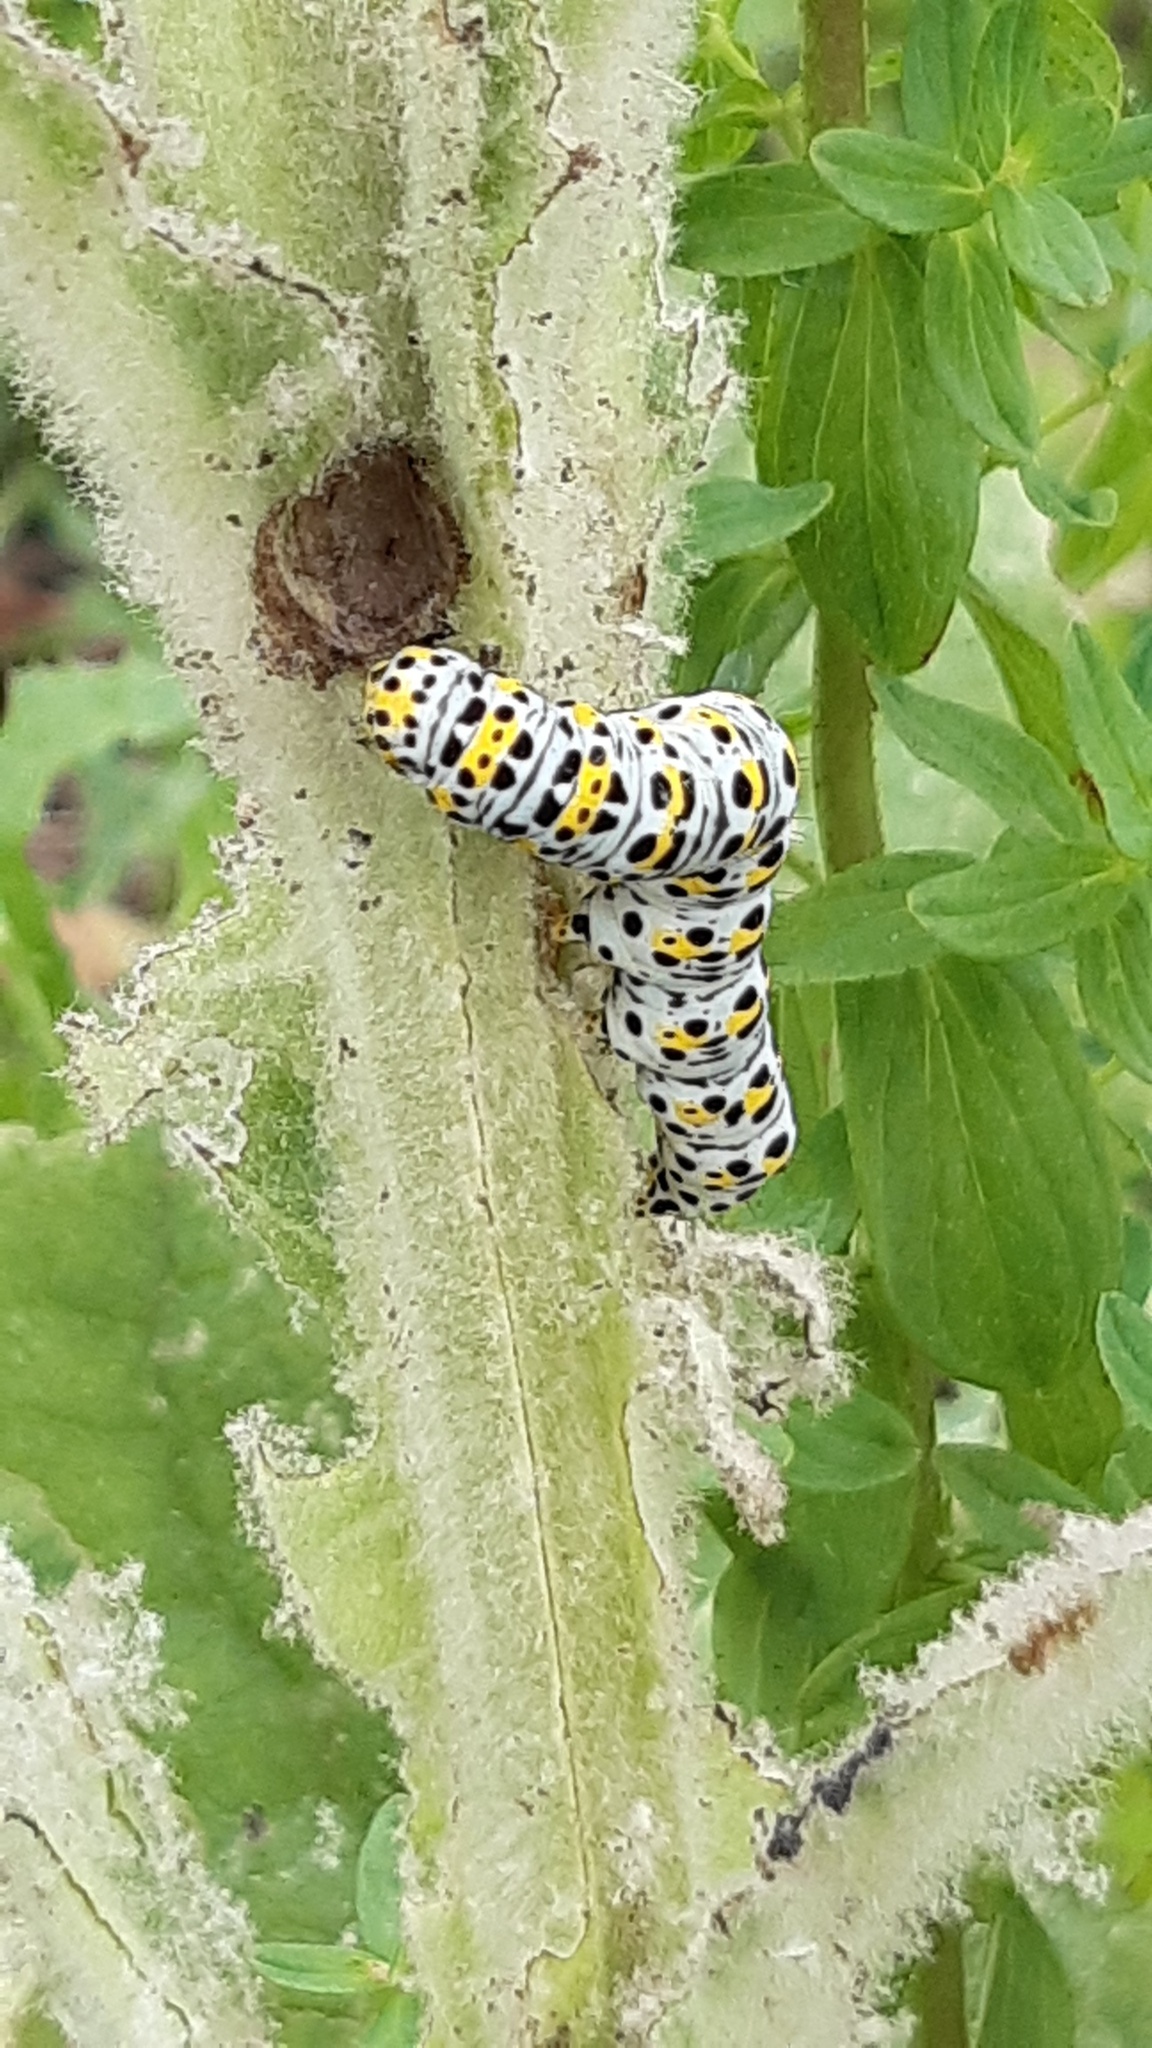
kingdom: Animalia
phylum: Arthropoda
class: Insecta
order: Lepidoptera
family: Noctuidae
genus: Cucullia
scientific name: Cucullia verbasci
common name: Mullein
